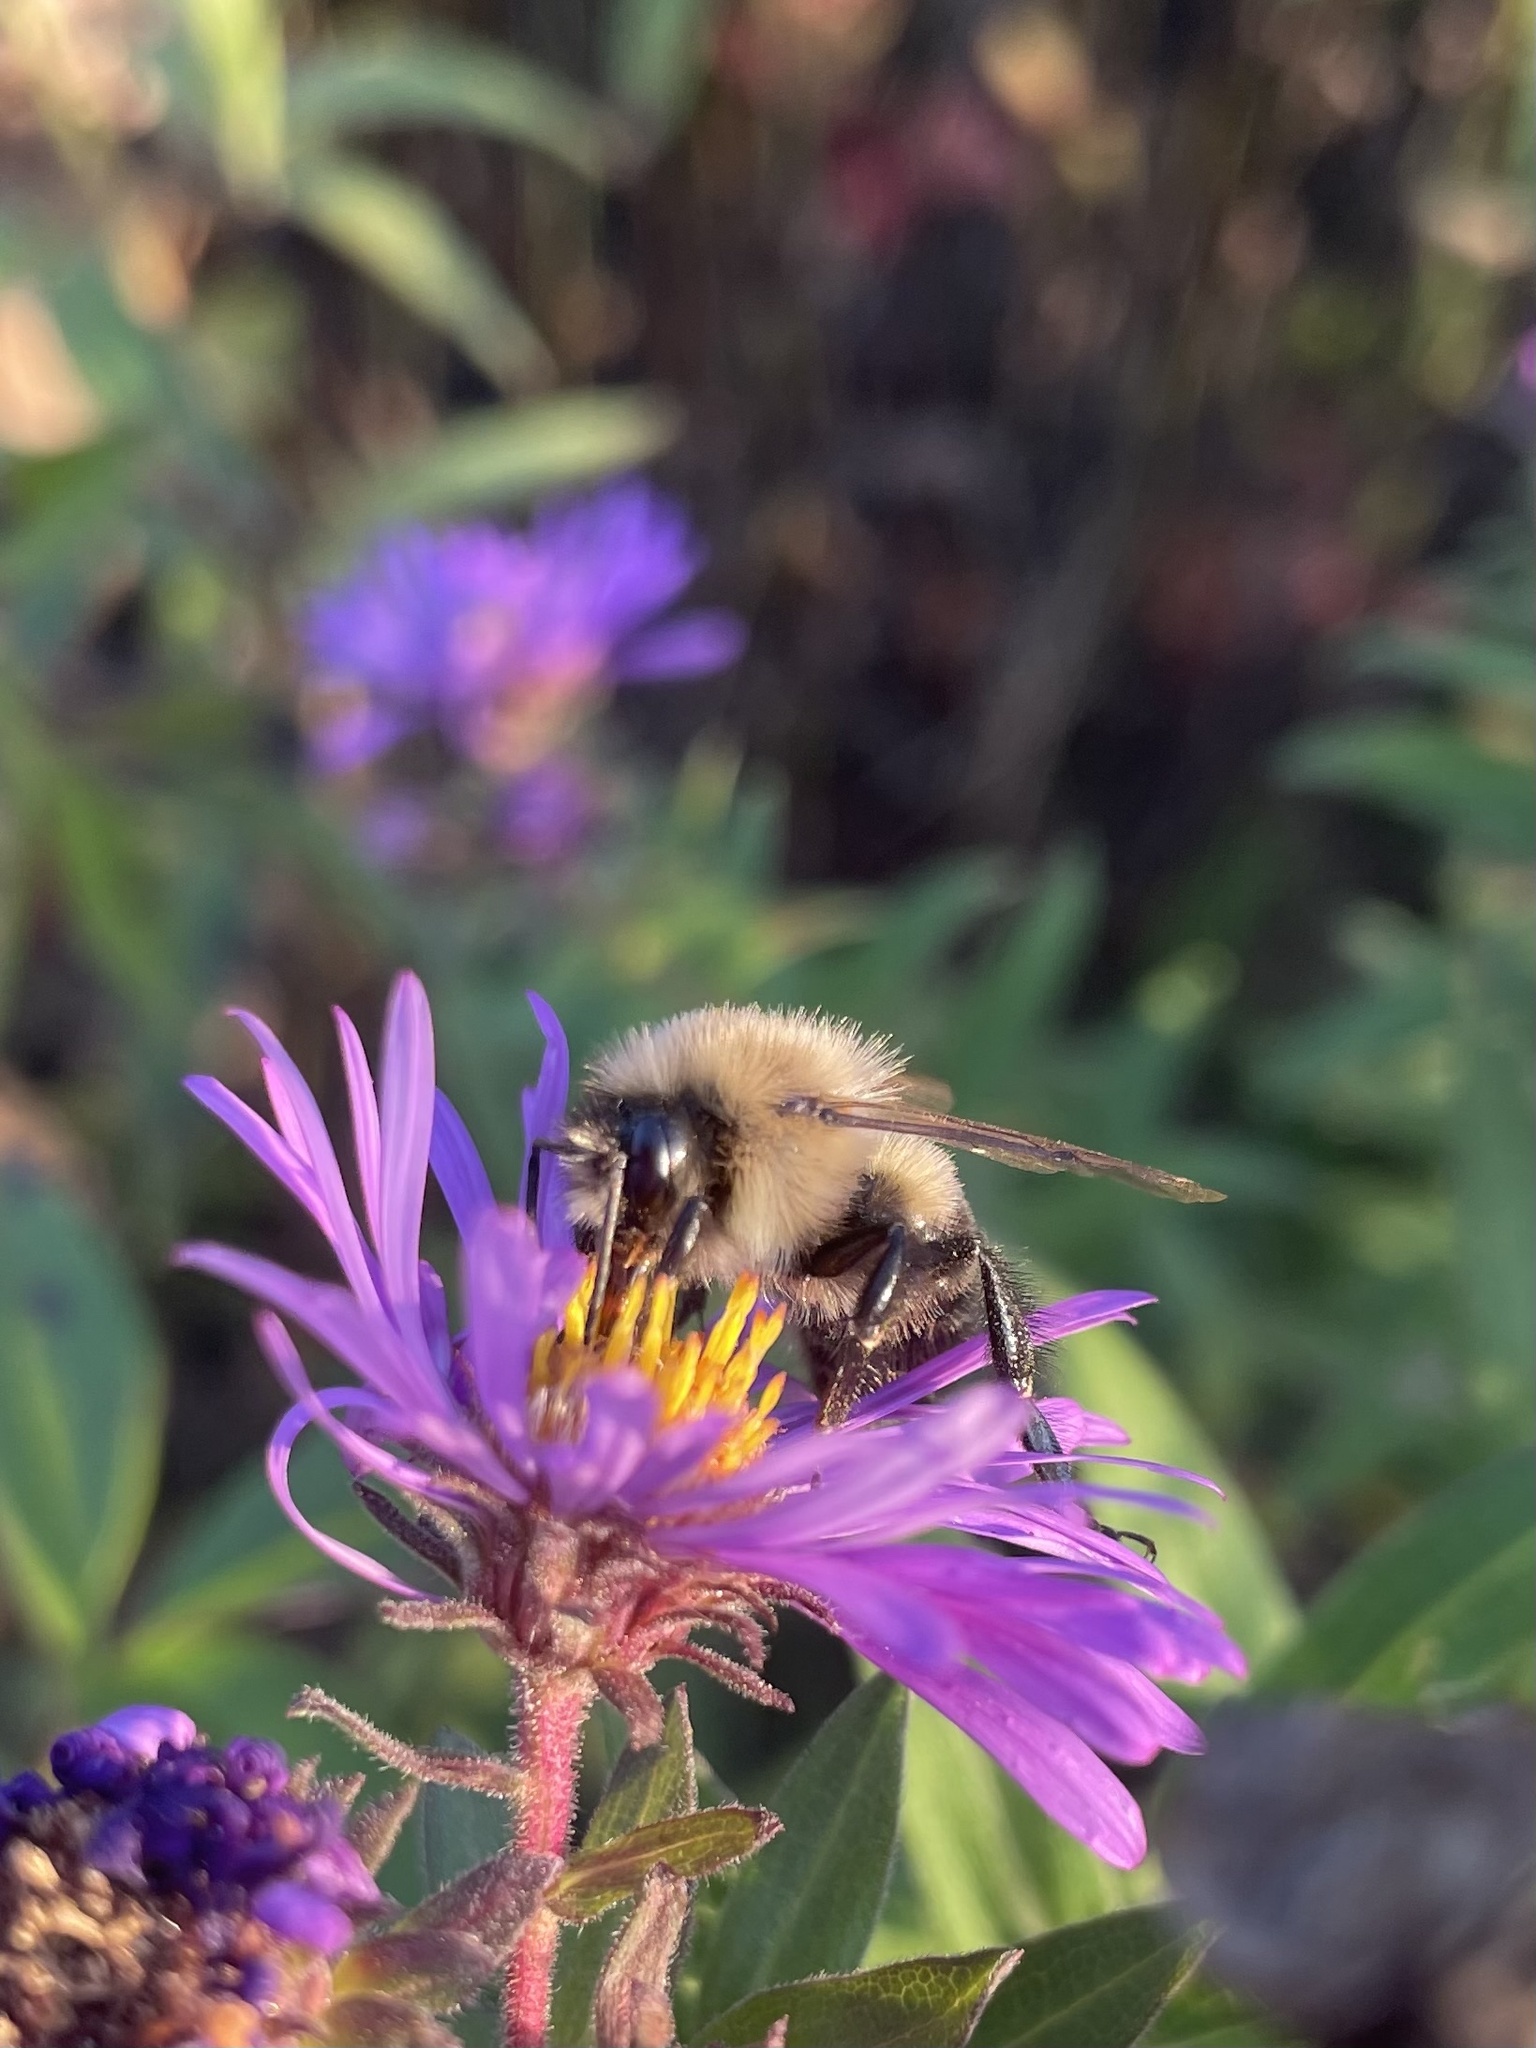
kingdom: Animalia
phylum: Arthropoda
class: Insecta
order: Hymenoptera
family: Apidae
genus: Bombus
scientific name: Bombus impatiens
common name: Common eastern bumble bee
